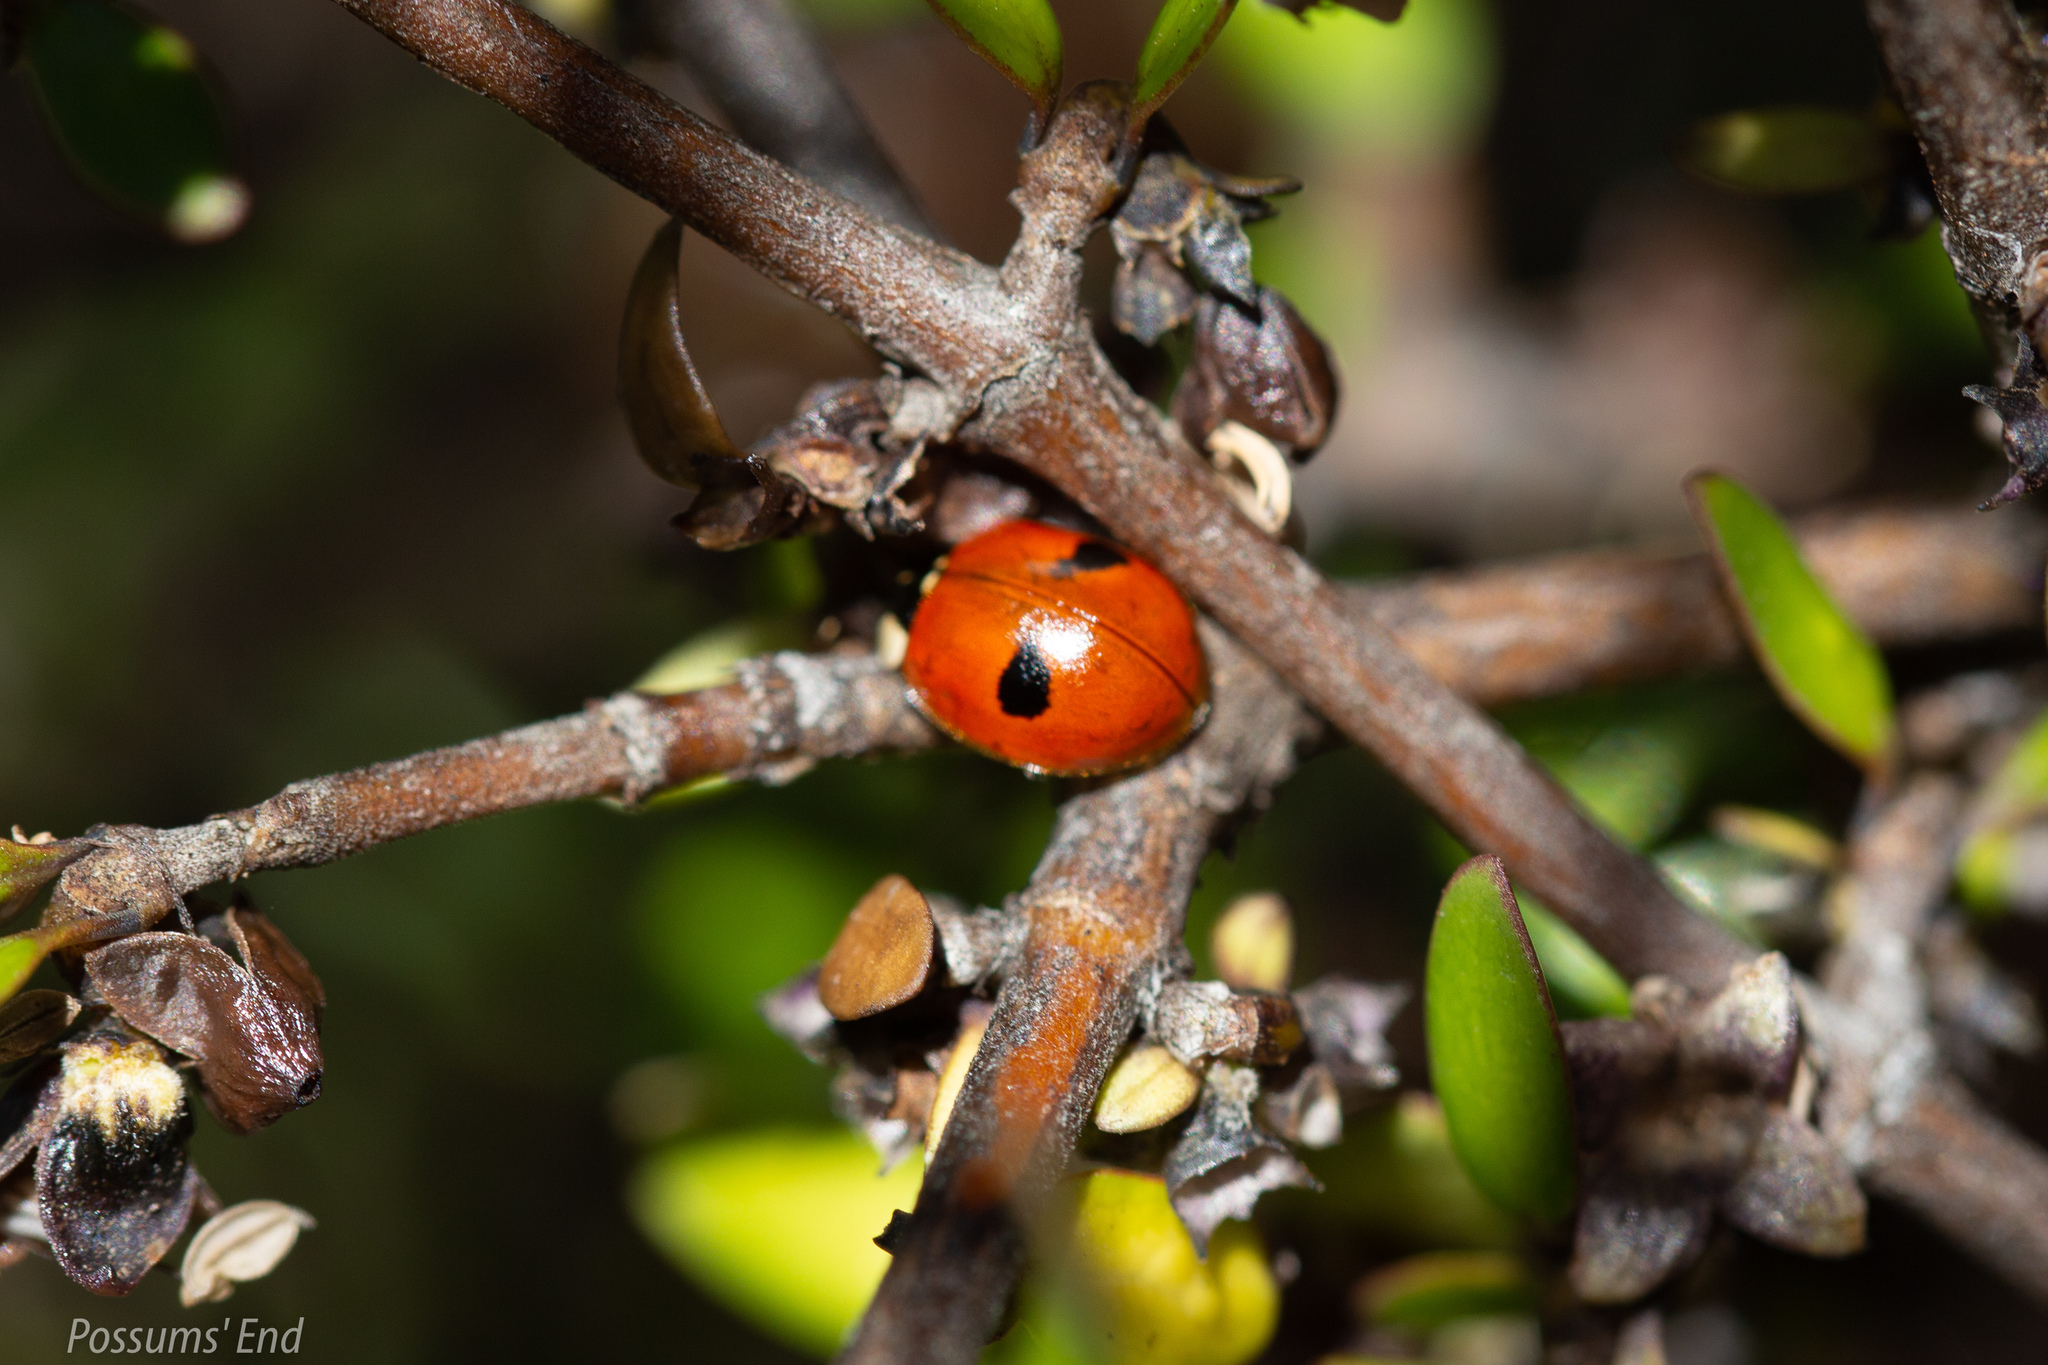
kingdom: Animalia
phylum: Arthropoda
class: Insecta
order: Coleoptera
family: Coccinellidae
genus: Adalia
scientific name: Adalia bipunctata
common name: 2-spot ladybird
